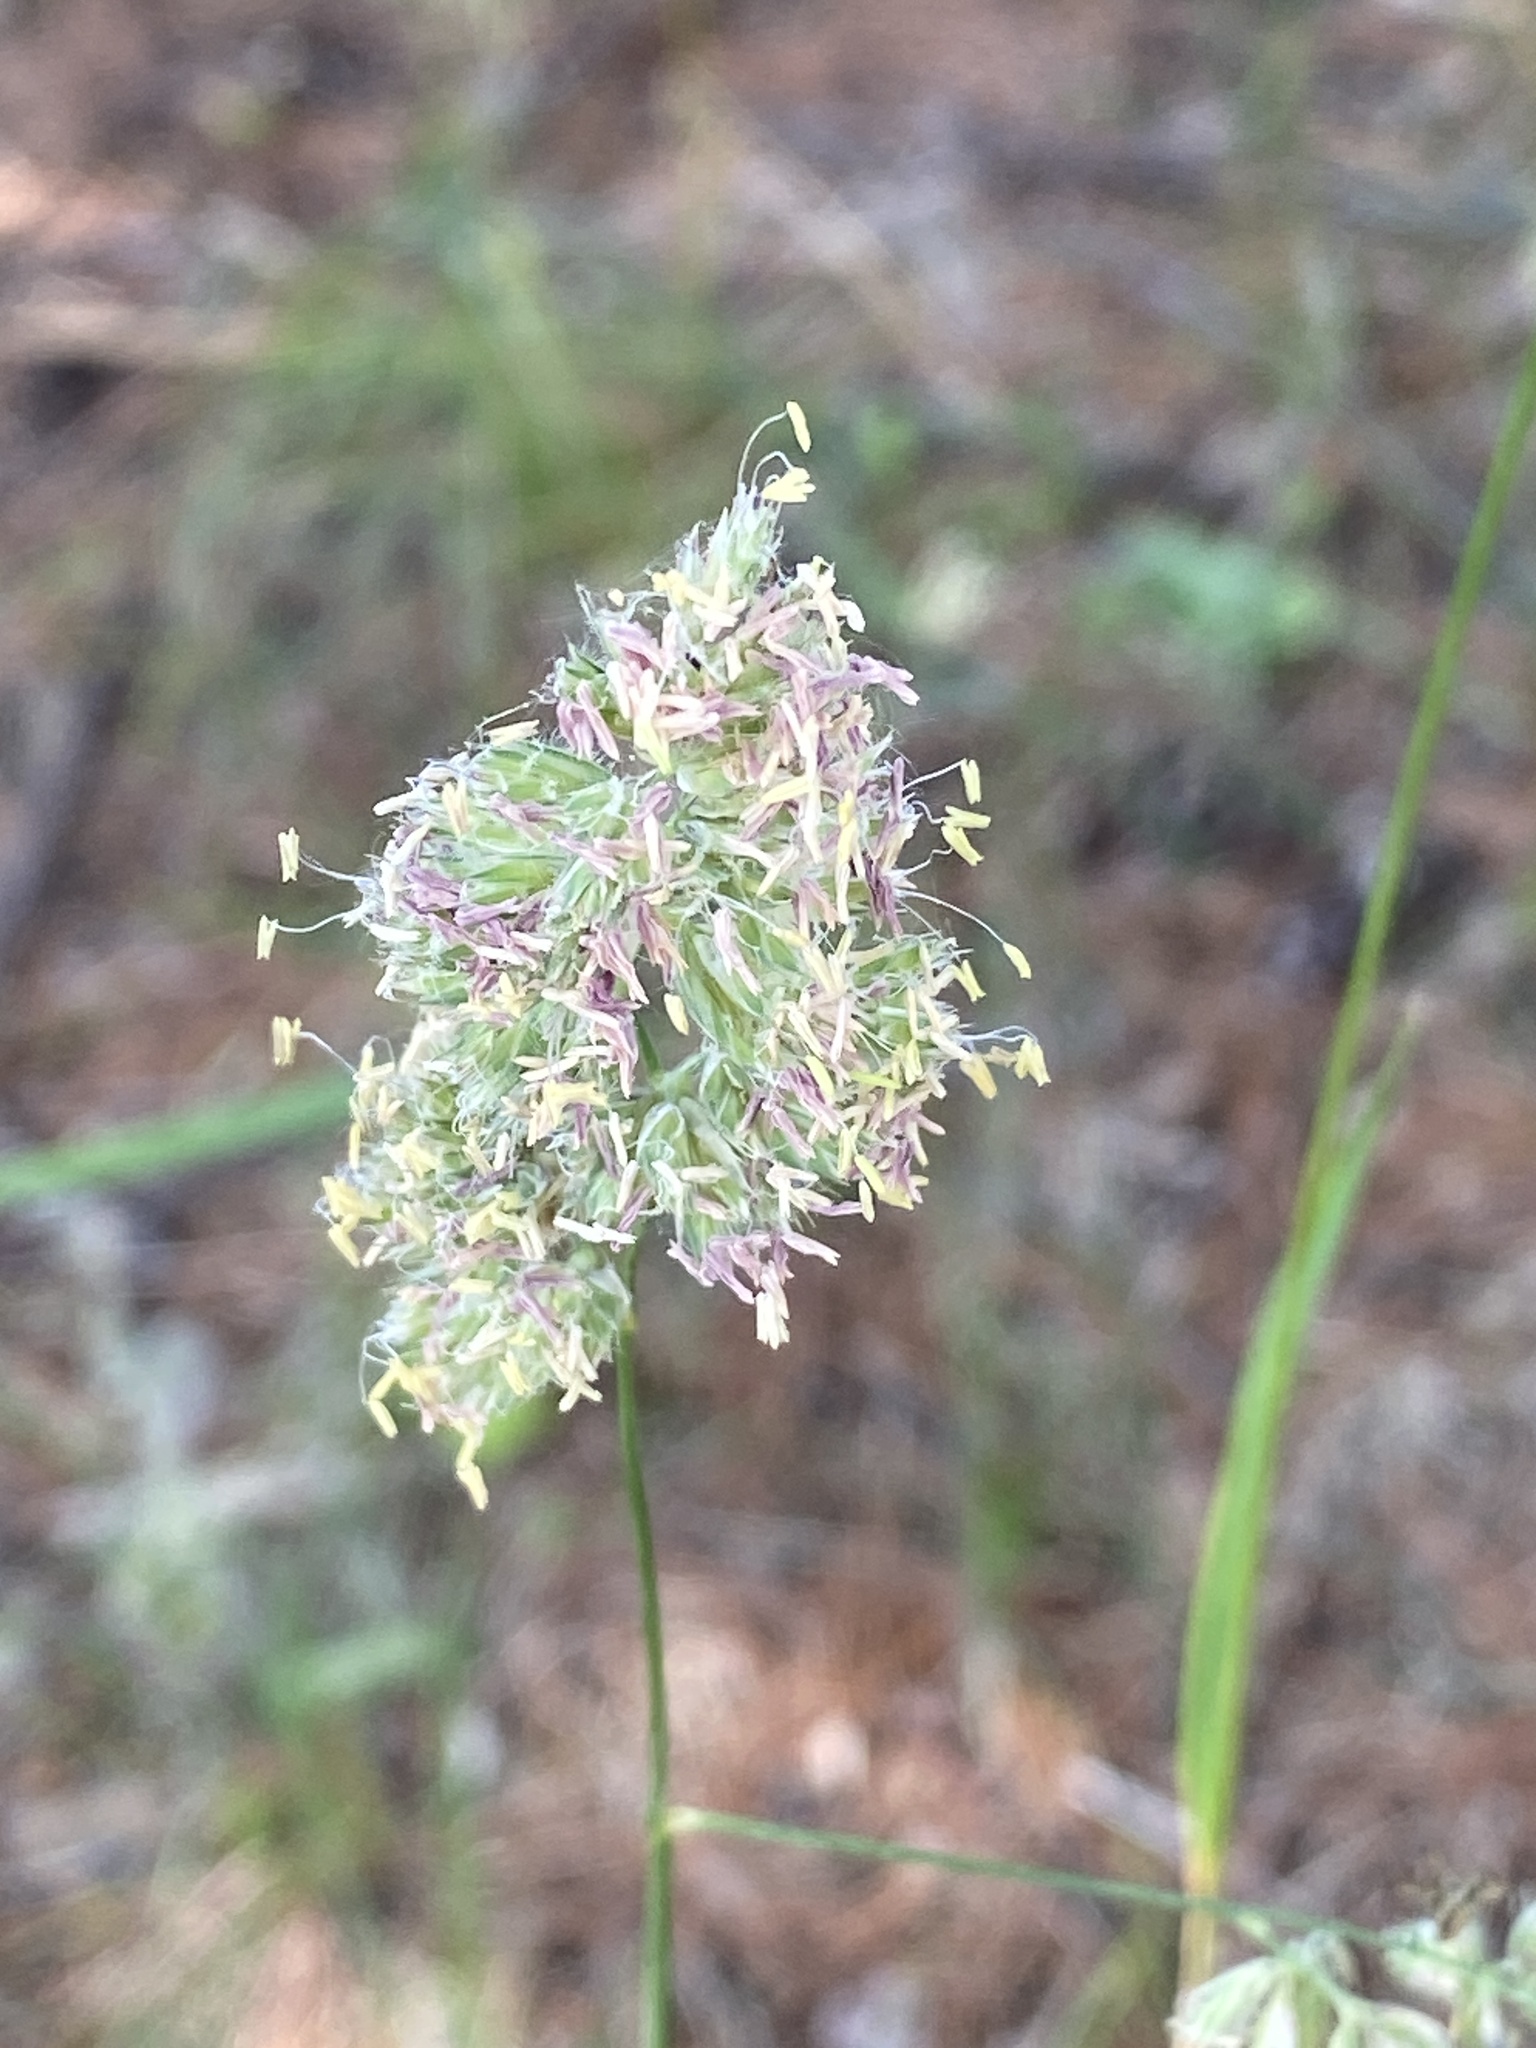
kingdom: Plantae
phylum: Tracheophyta
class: Liliopsida
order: Poales
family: Poaceae
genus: Dactylis
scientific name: Dactylis glomerata
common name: Orchardgrass
